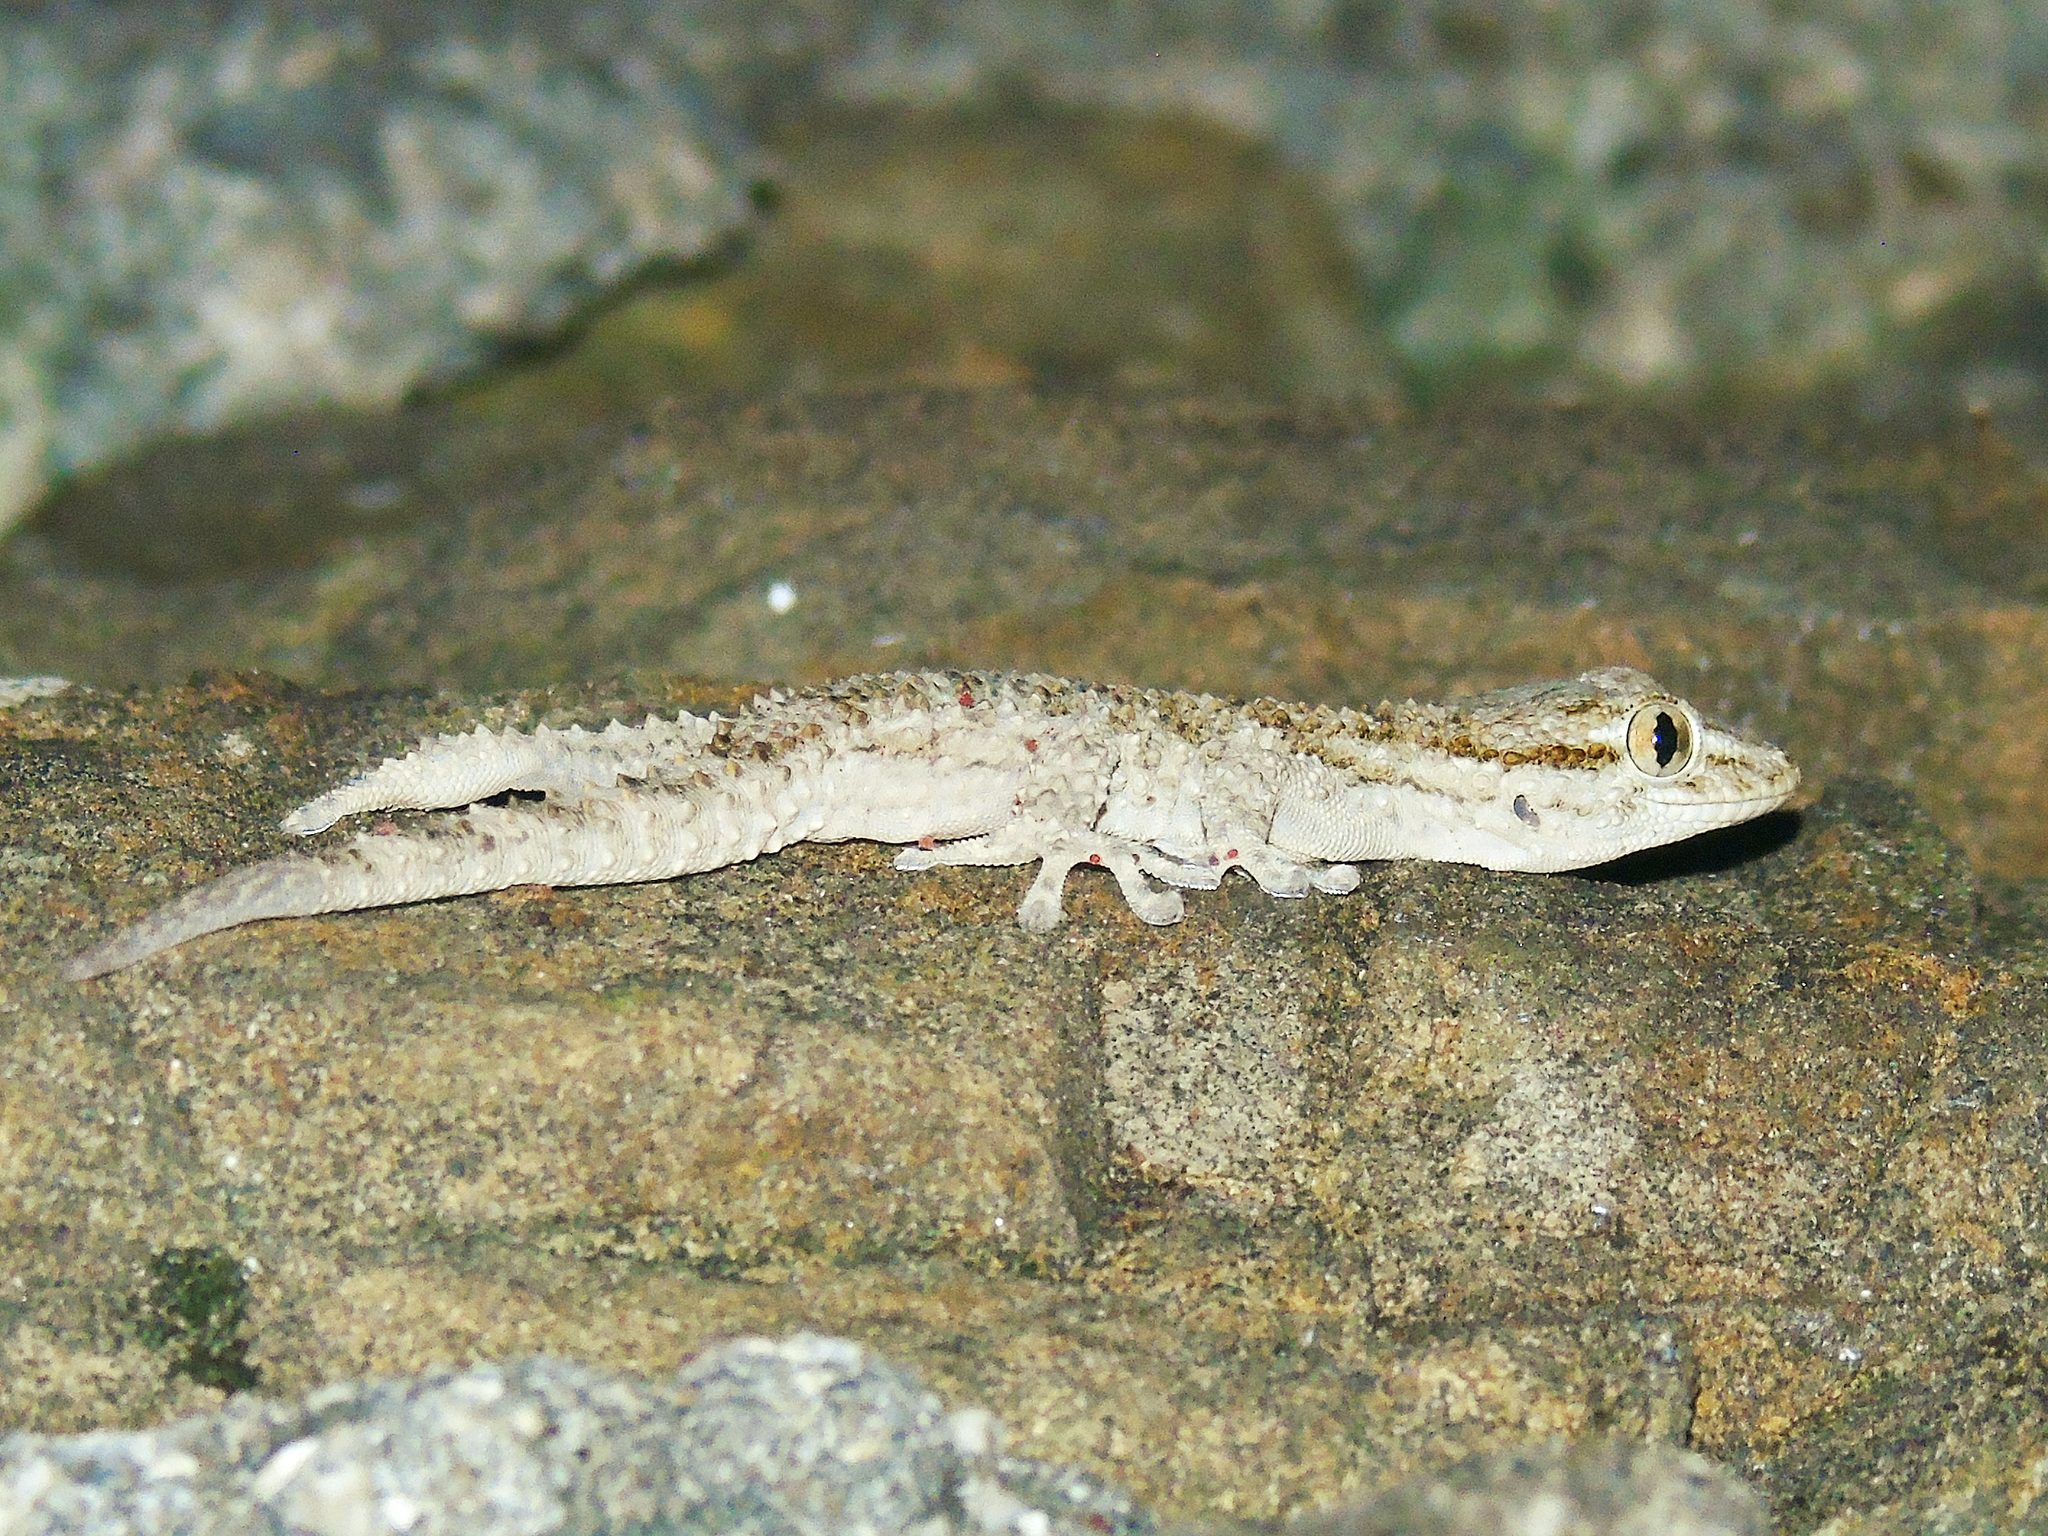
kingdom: Animalia
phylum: Chordata
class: Squamata
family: Phyllodactylidae
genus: Tarentola
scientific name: Tarentola mauritanica
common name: Moorish gecko
